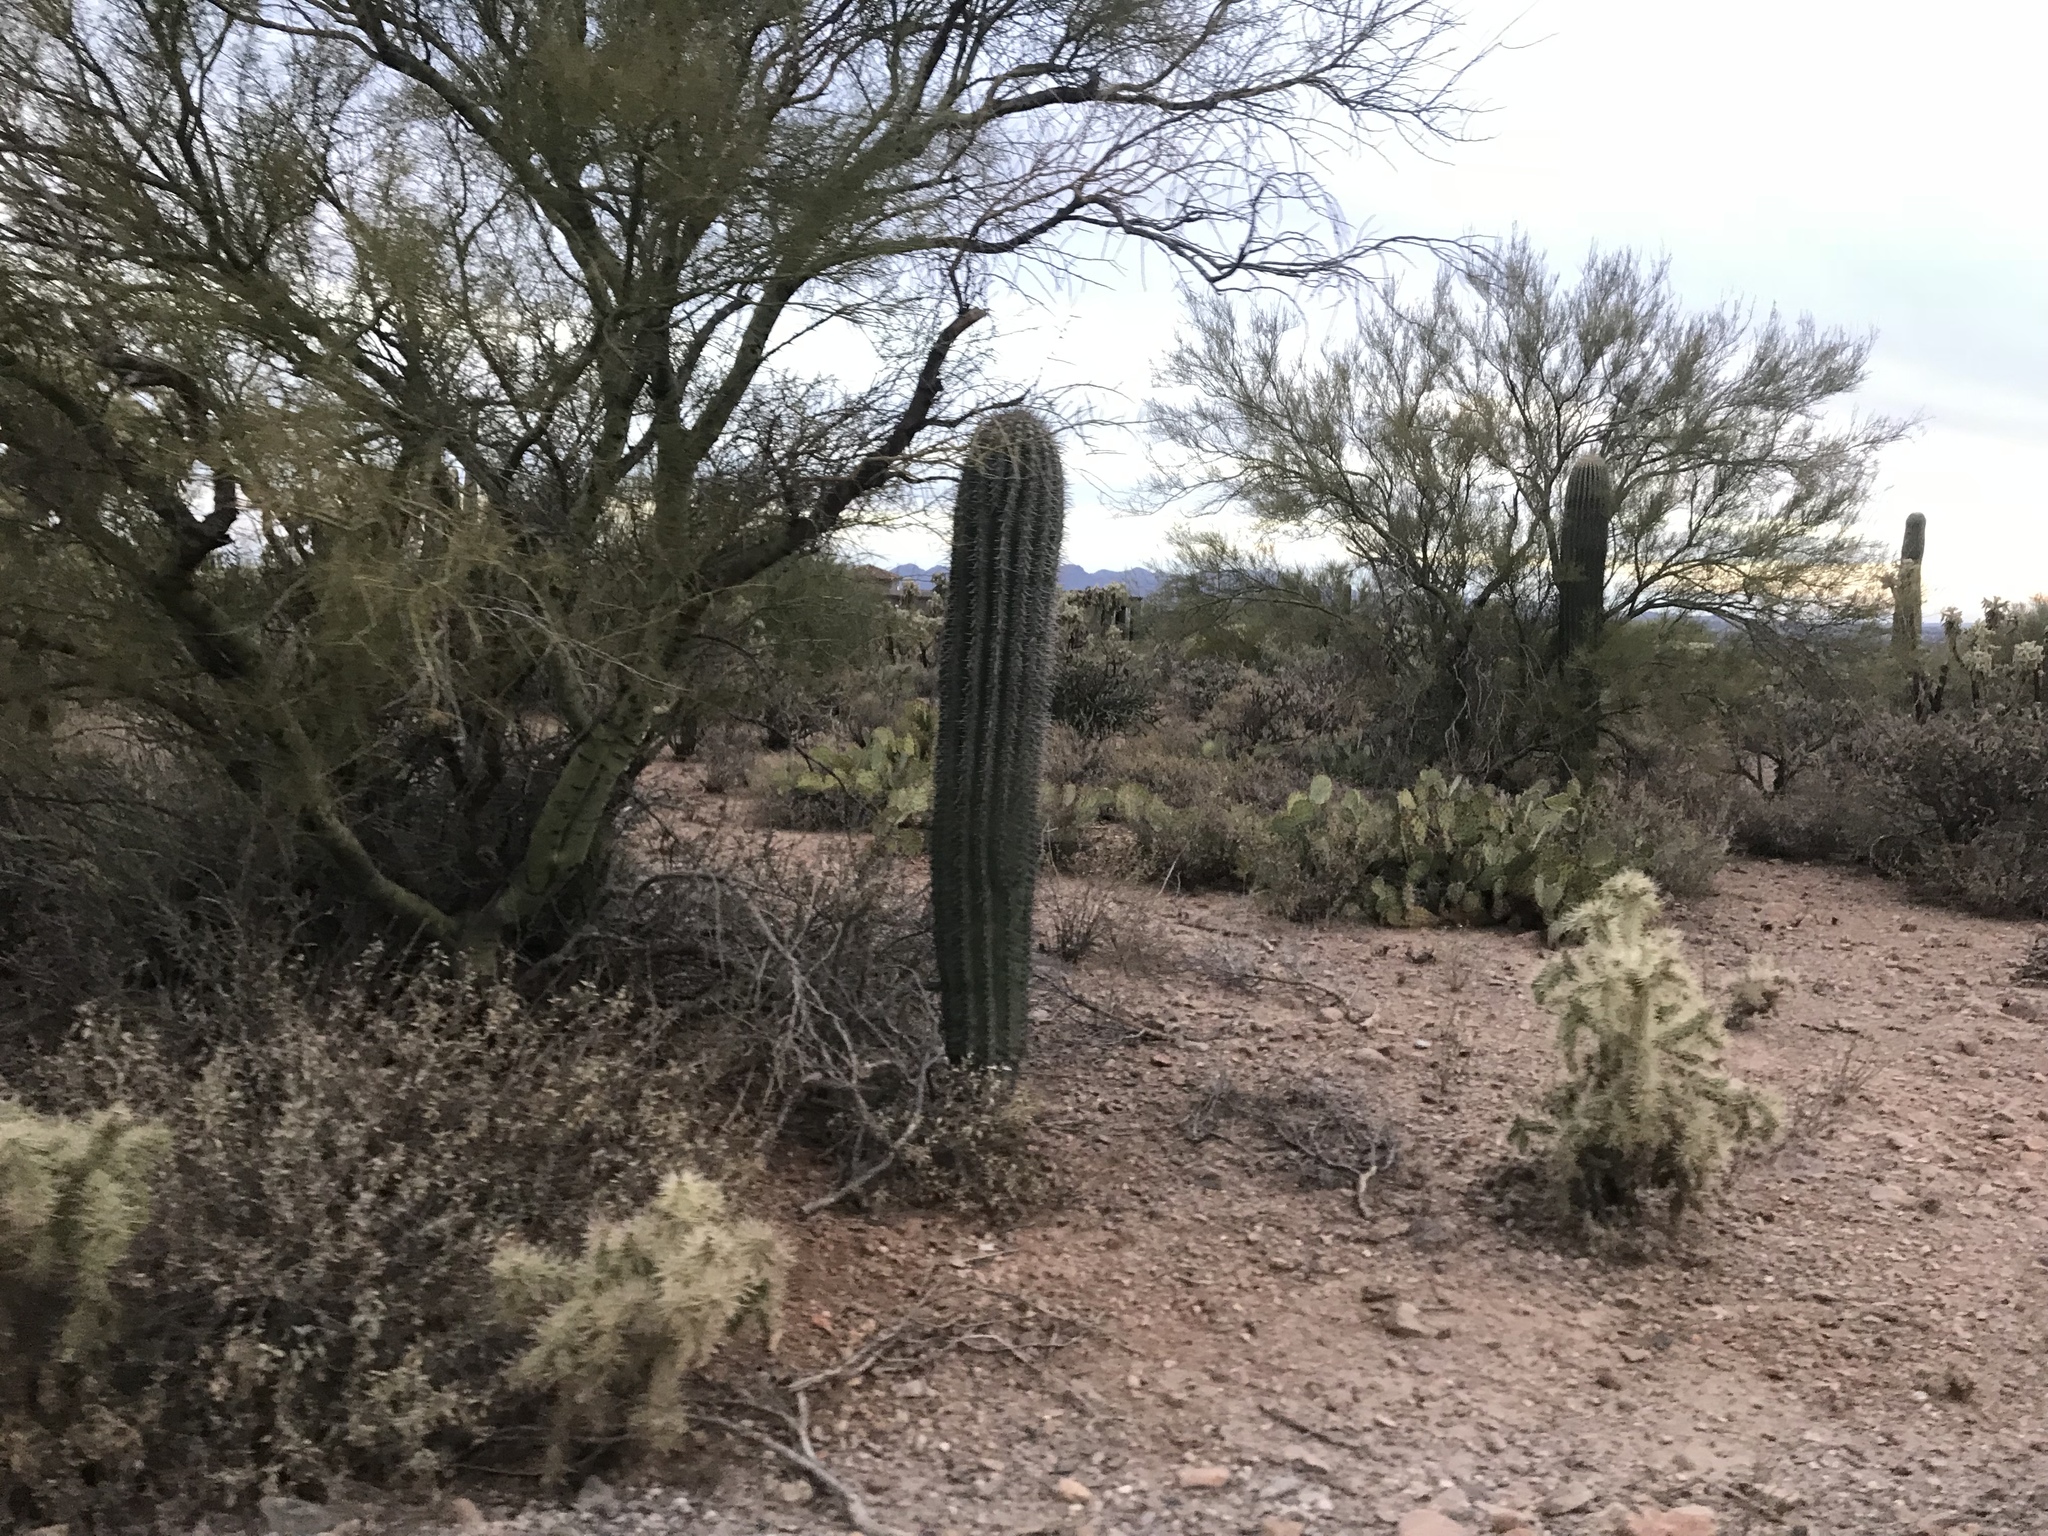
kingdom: Plantae
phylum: Tracheophyta
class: Magnoliopsida
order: Caryophyllales
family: Cactaceae
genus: Carnegiea
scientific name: Carnegiea gigantea
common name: Saguaro
